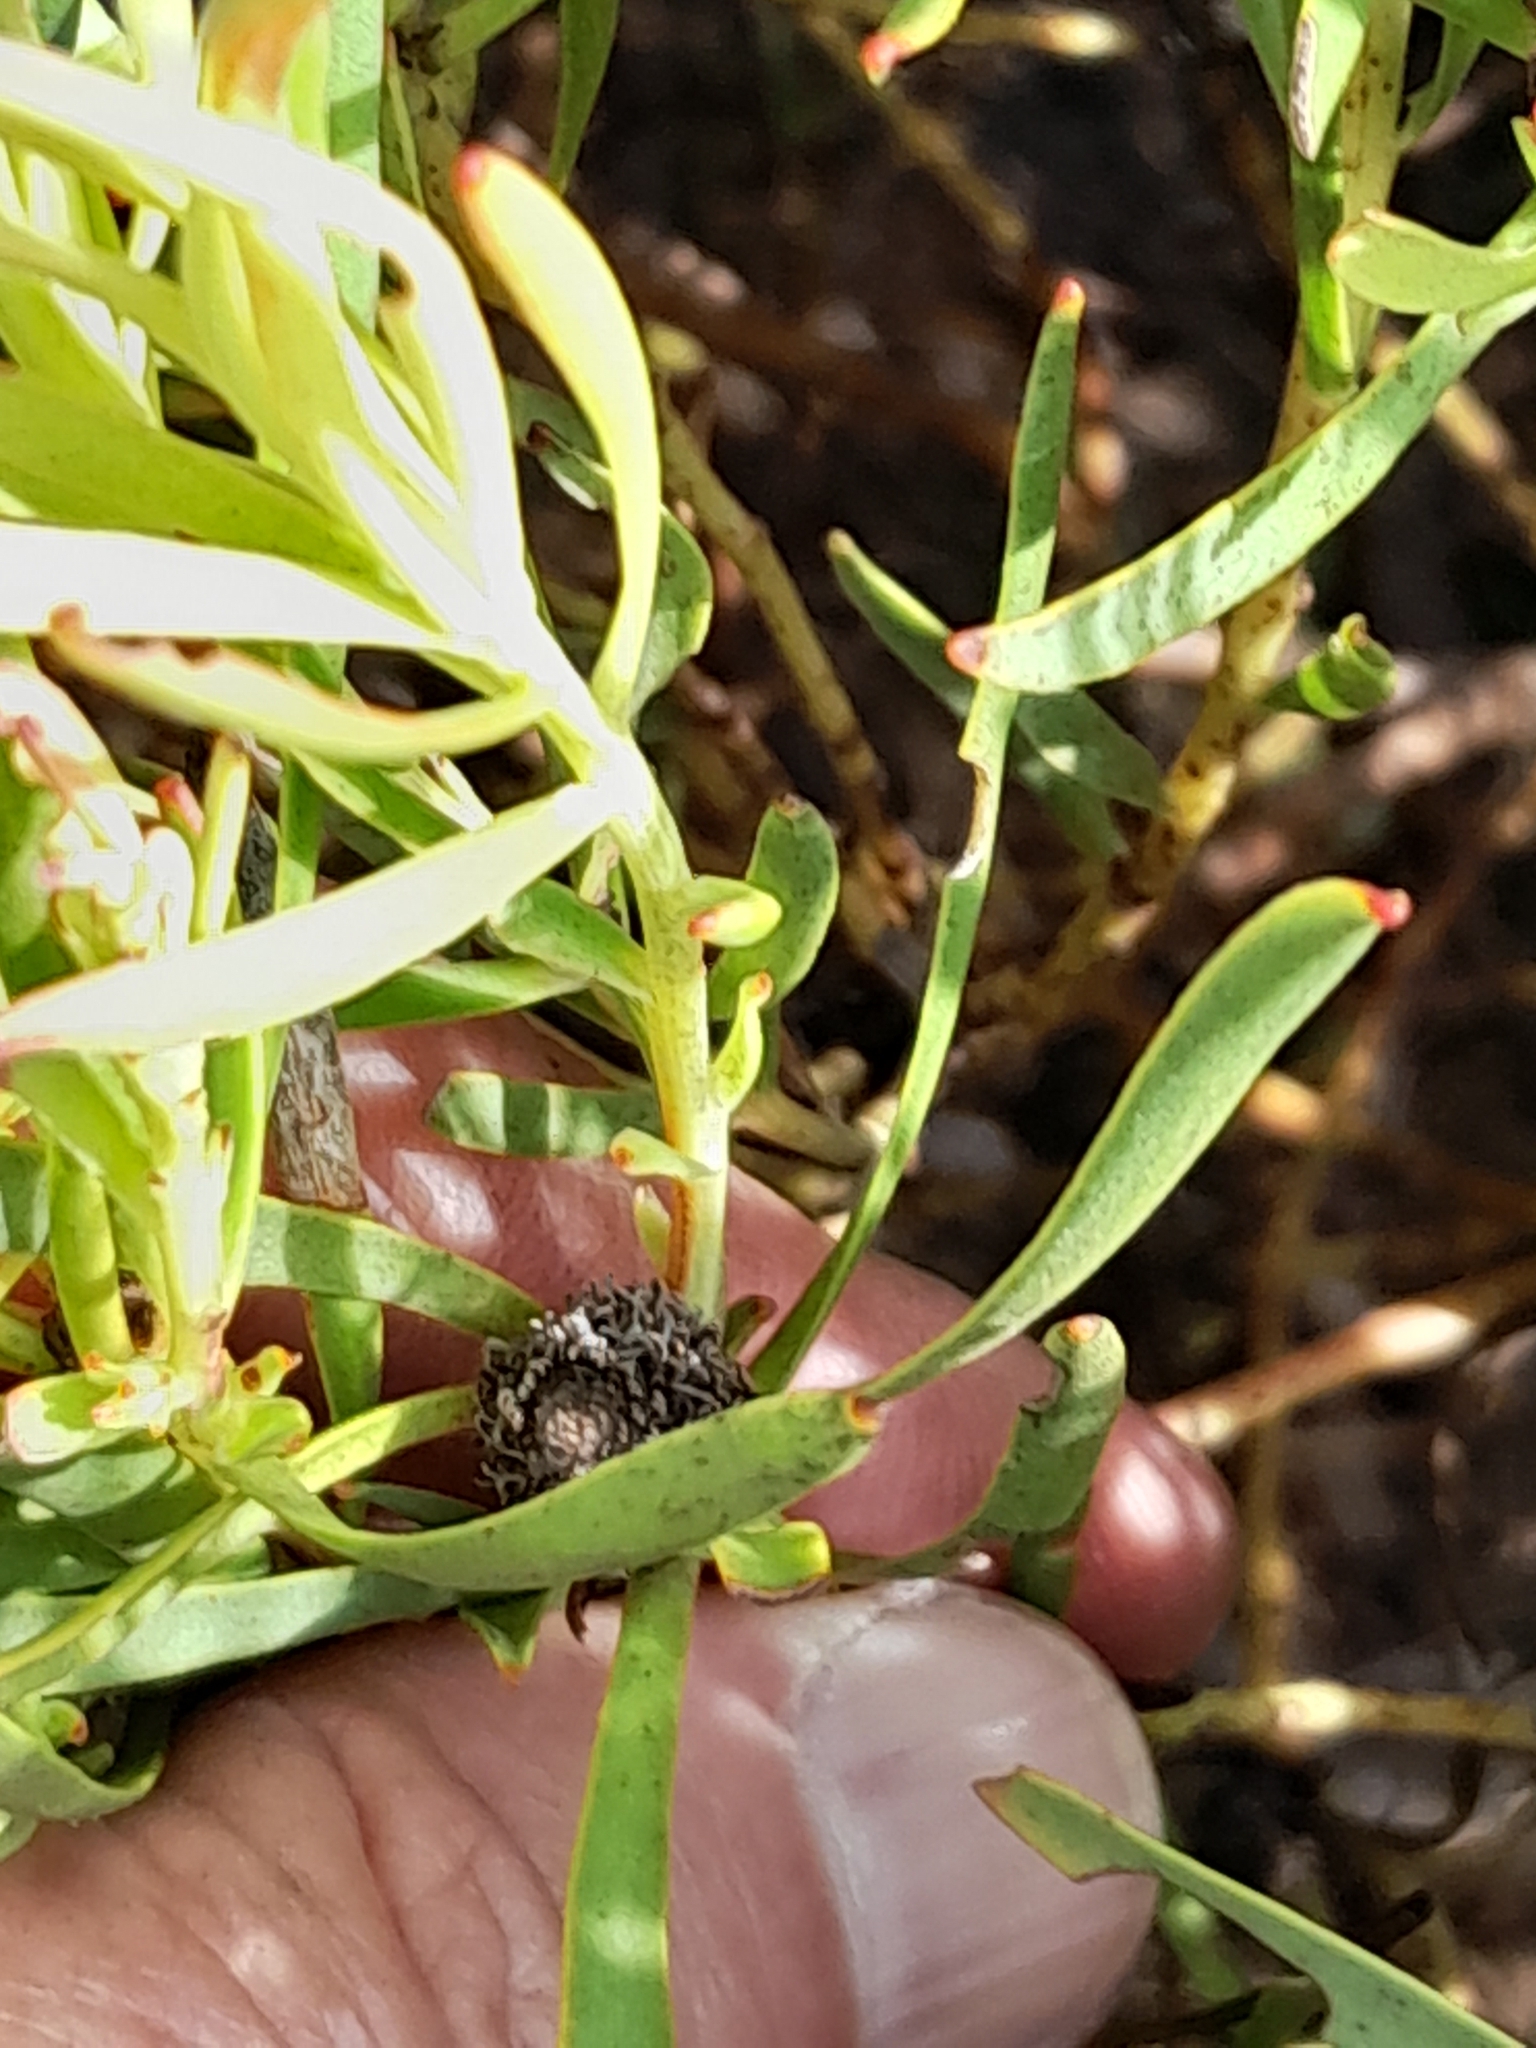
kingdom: Plantae
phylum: Tracheophyta
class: Magnoliopsida
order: Proteales
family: Proteaceae
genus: Leucadendron
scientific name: Leucadendron salignum
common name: Common sunshine conebush
